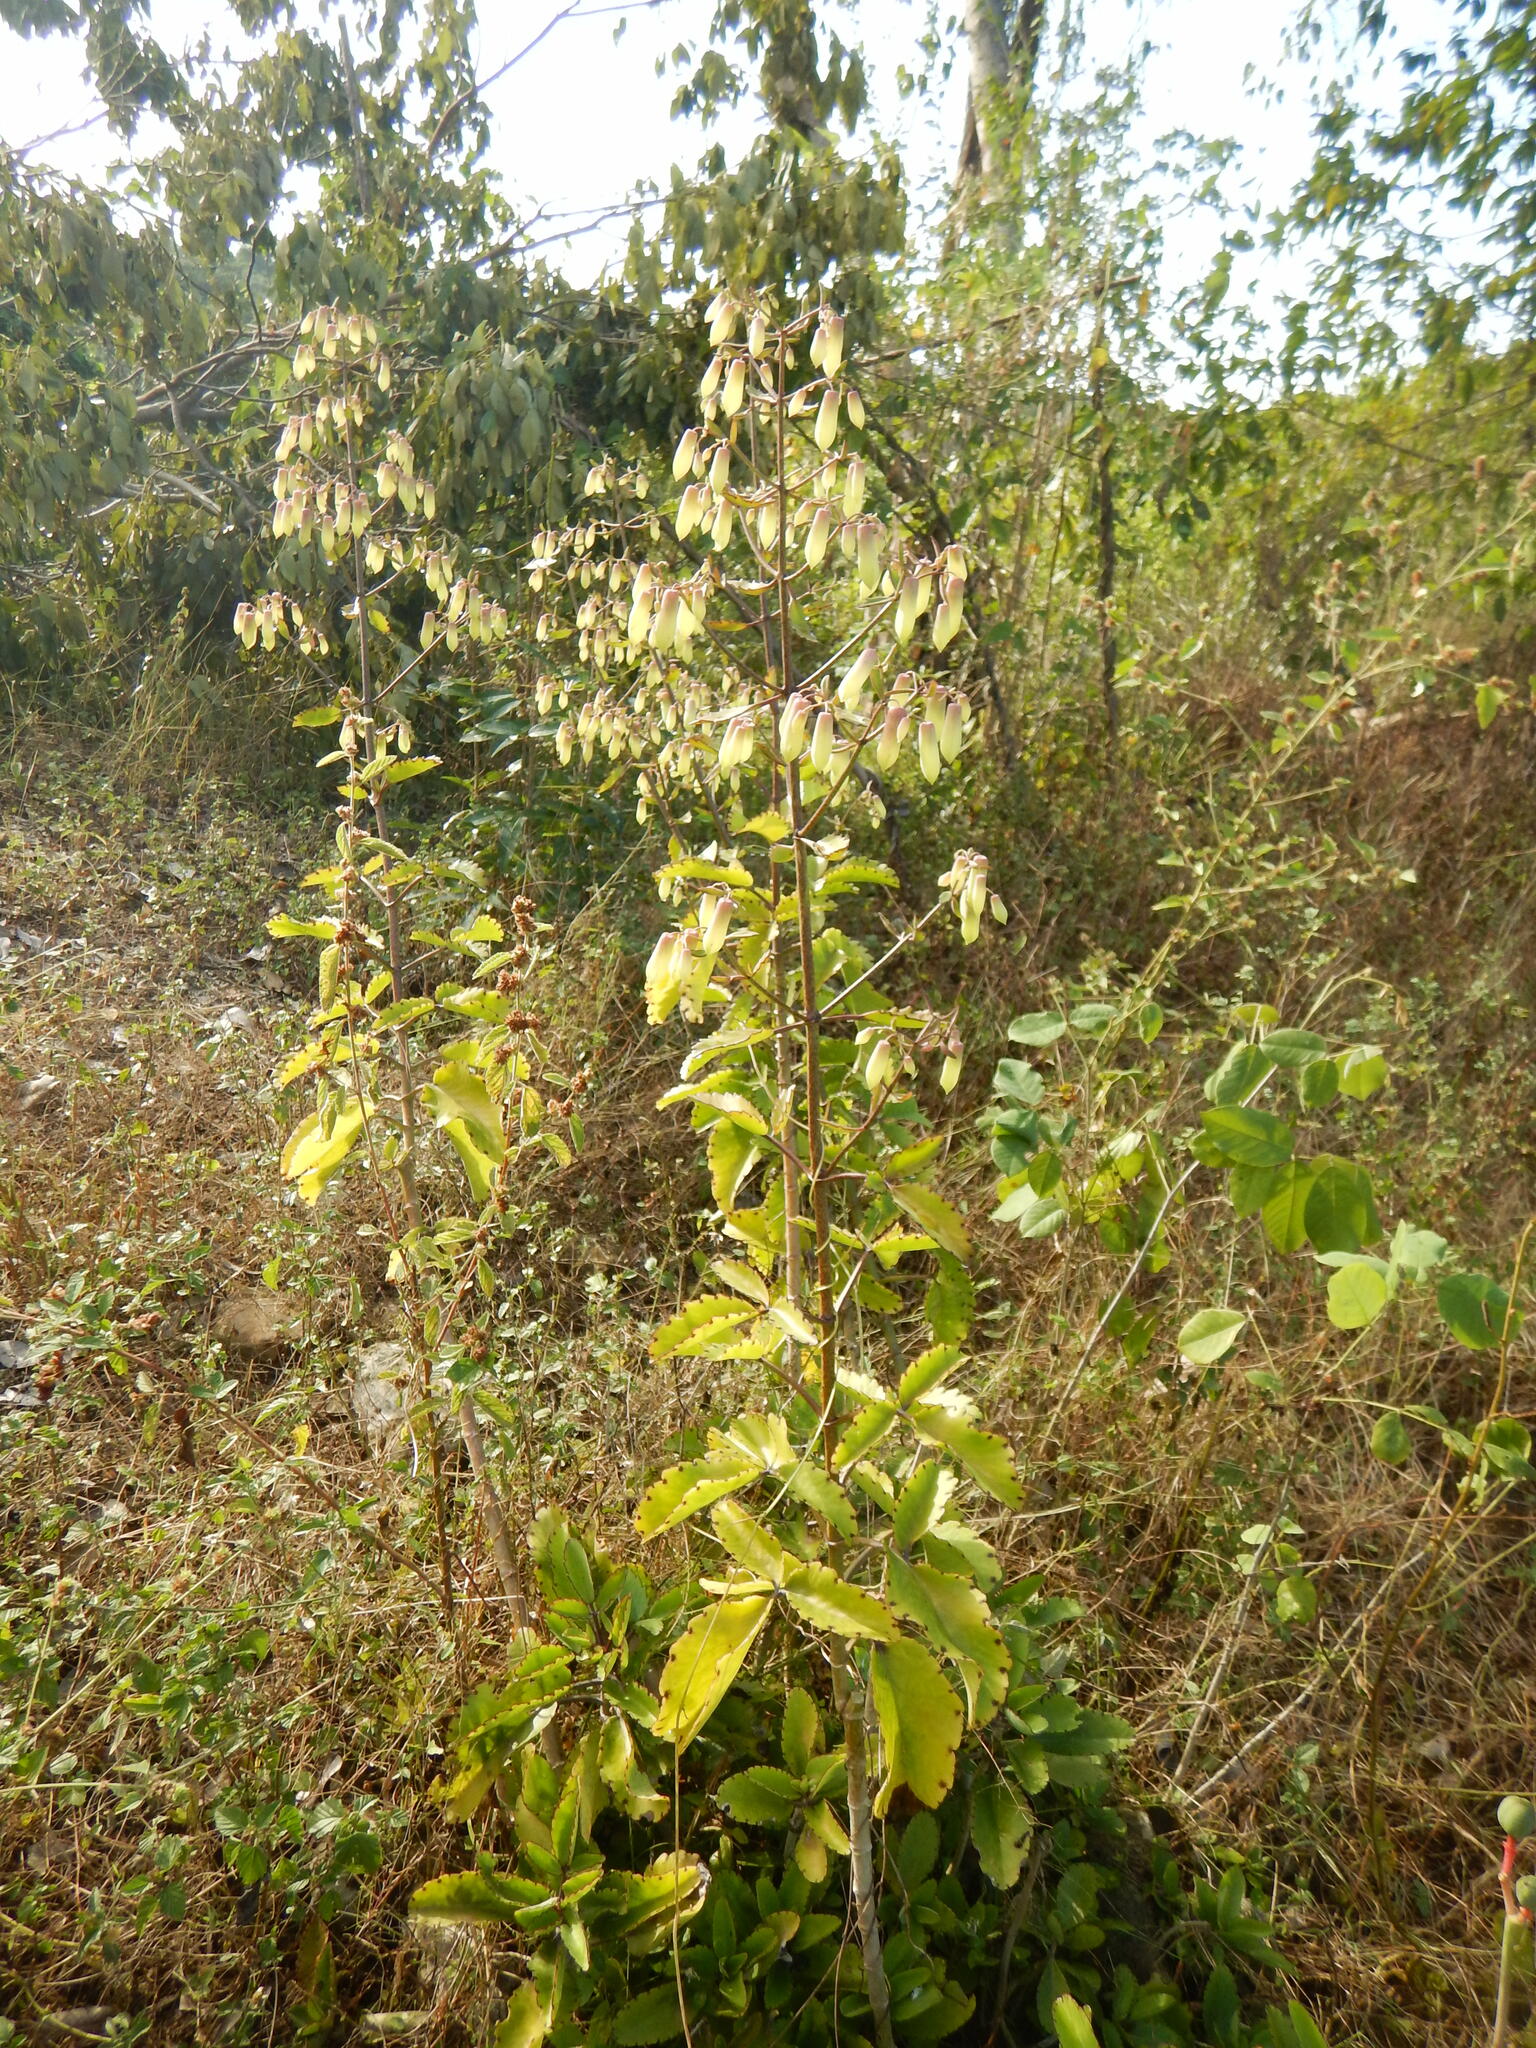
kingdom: Plantae
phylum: Tracheophyta
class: Magnoliopsida
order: Saxifragales
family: Crassulaceae
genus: Kalanchoe
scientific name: Kalanchoe pinnata
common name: Cathedral bells
